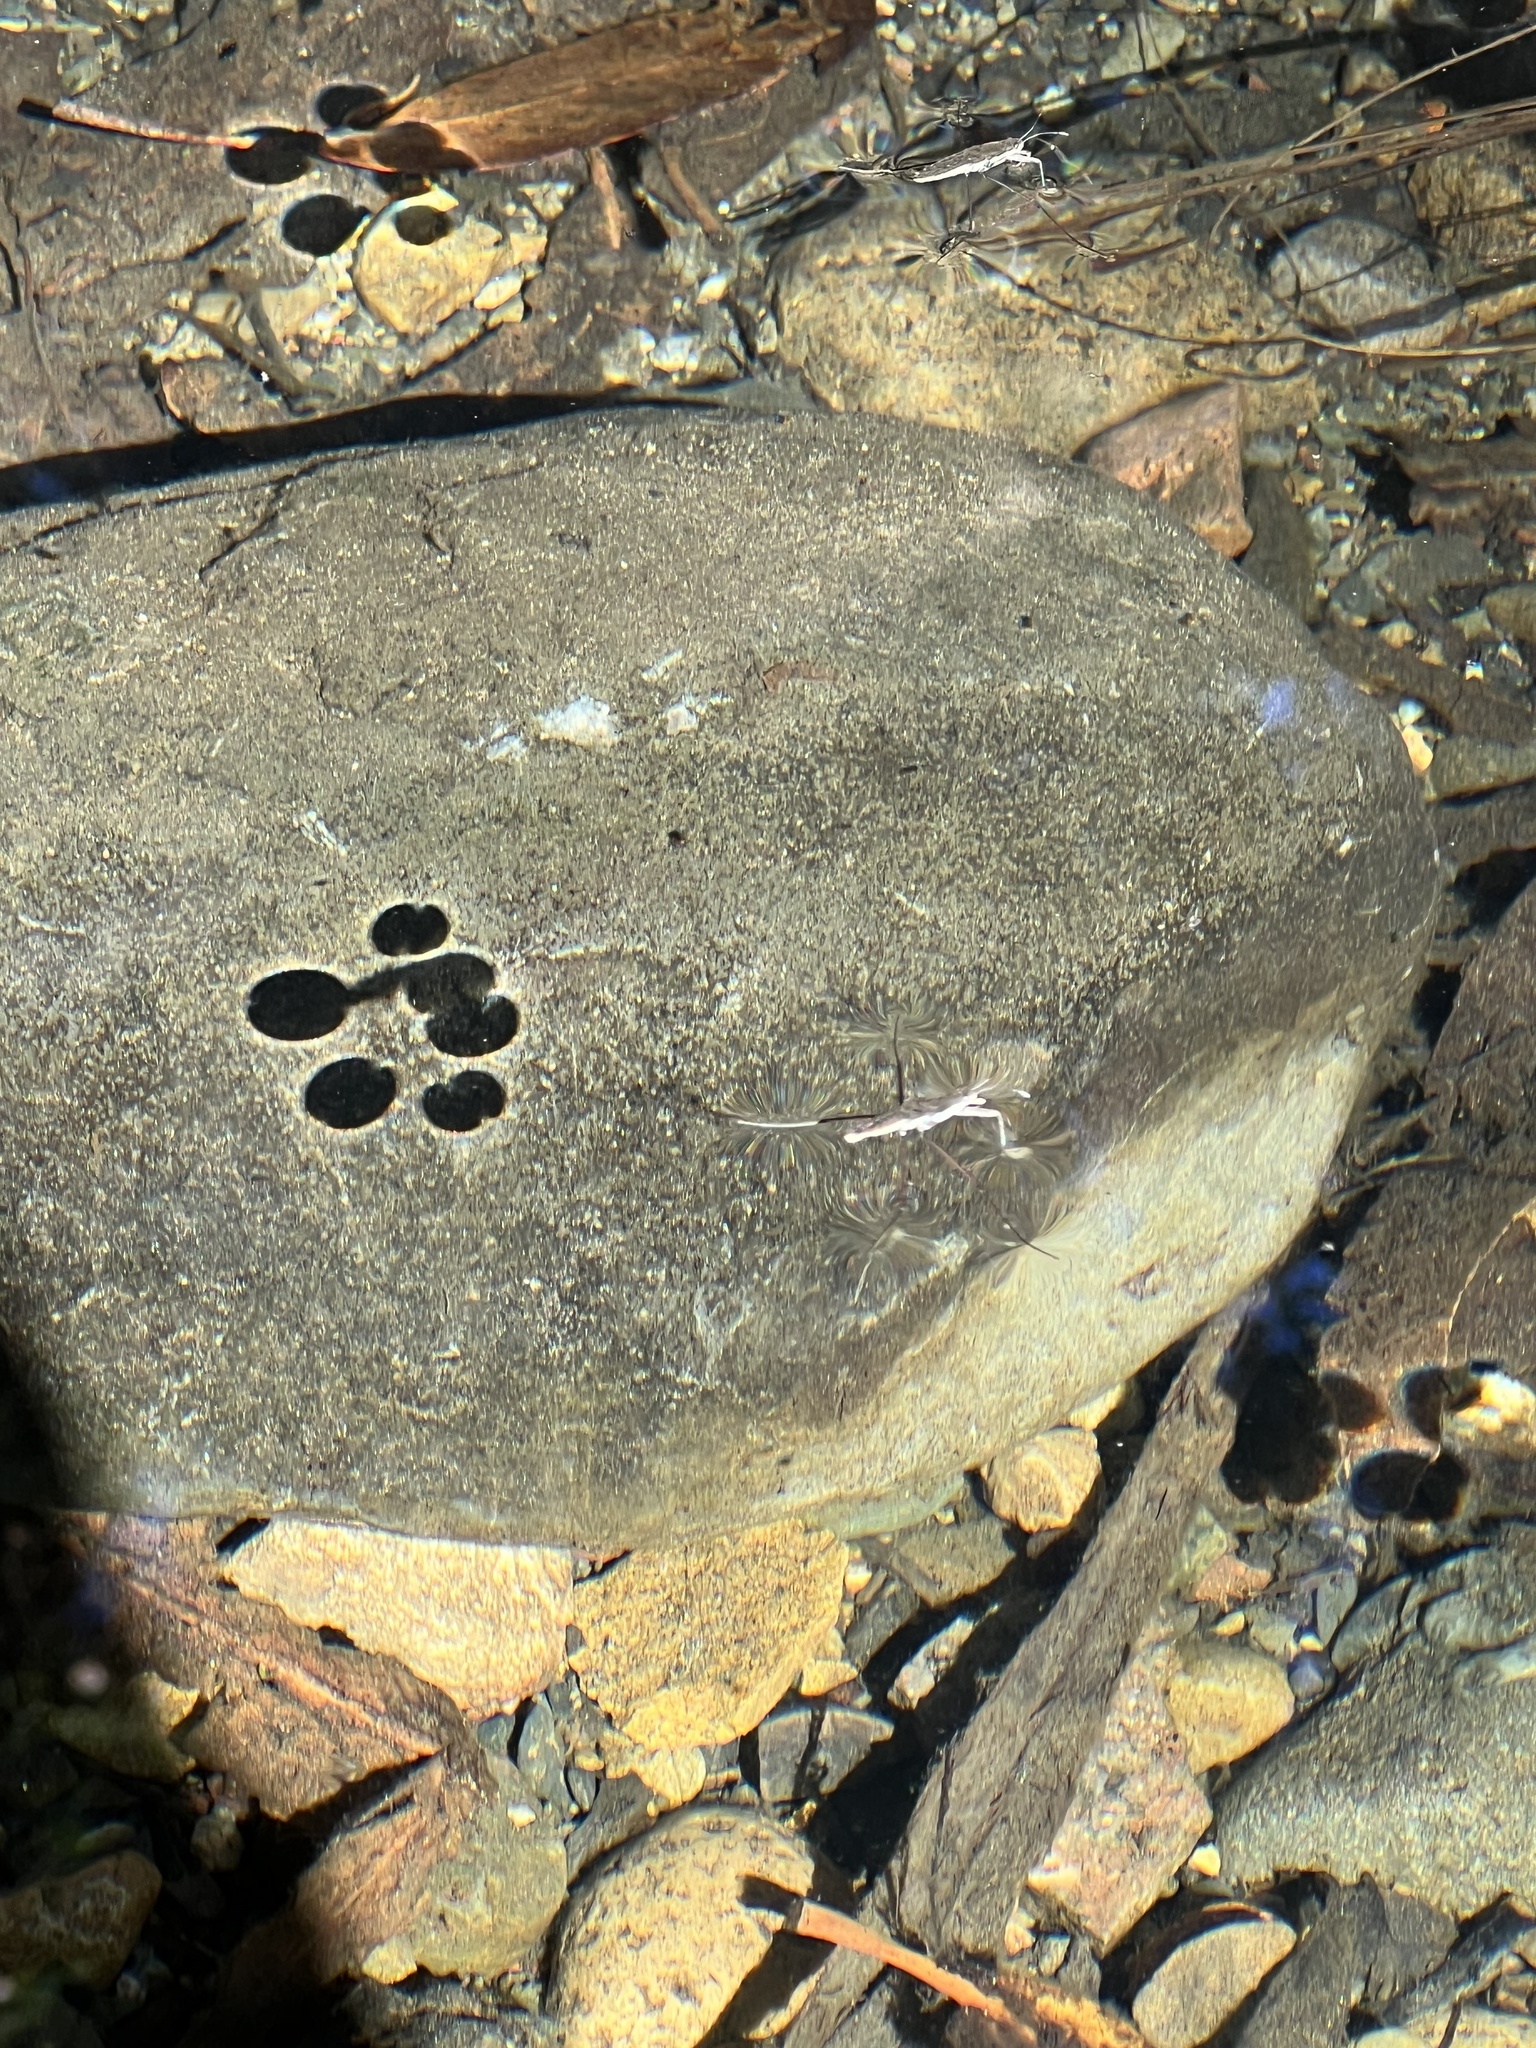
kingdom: Animalia
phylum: Arthropoda
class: Insecta
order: Hemiptera
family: Gerridae
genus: Aquarius
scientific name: Aquarius remigis
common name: Common water strider
